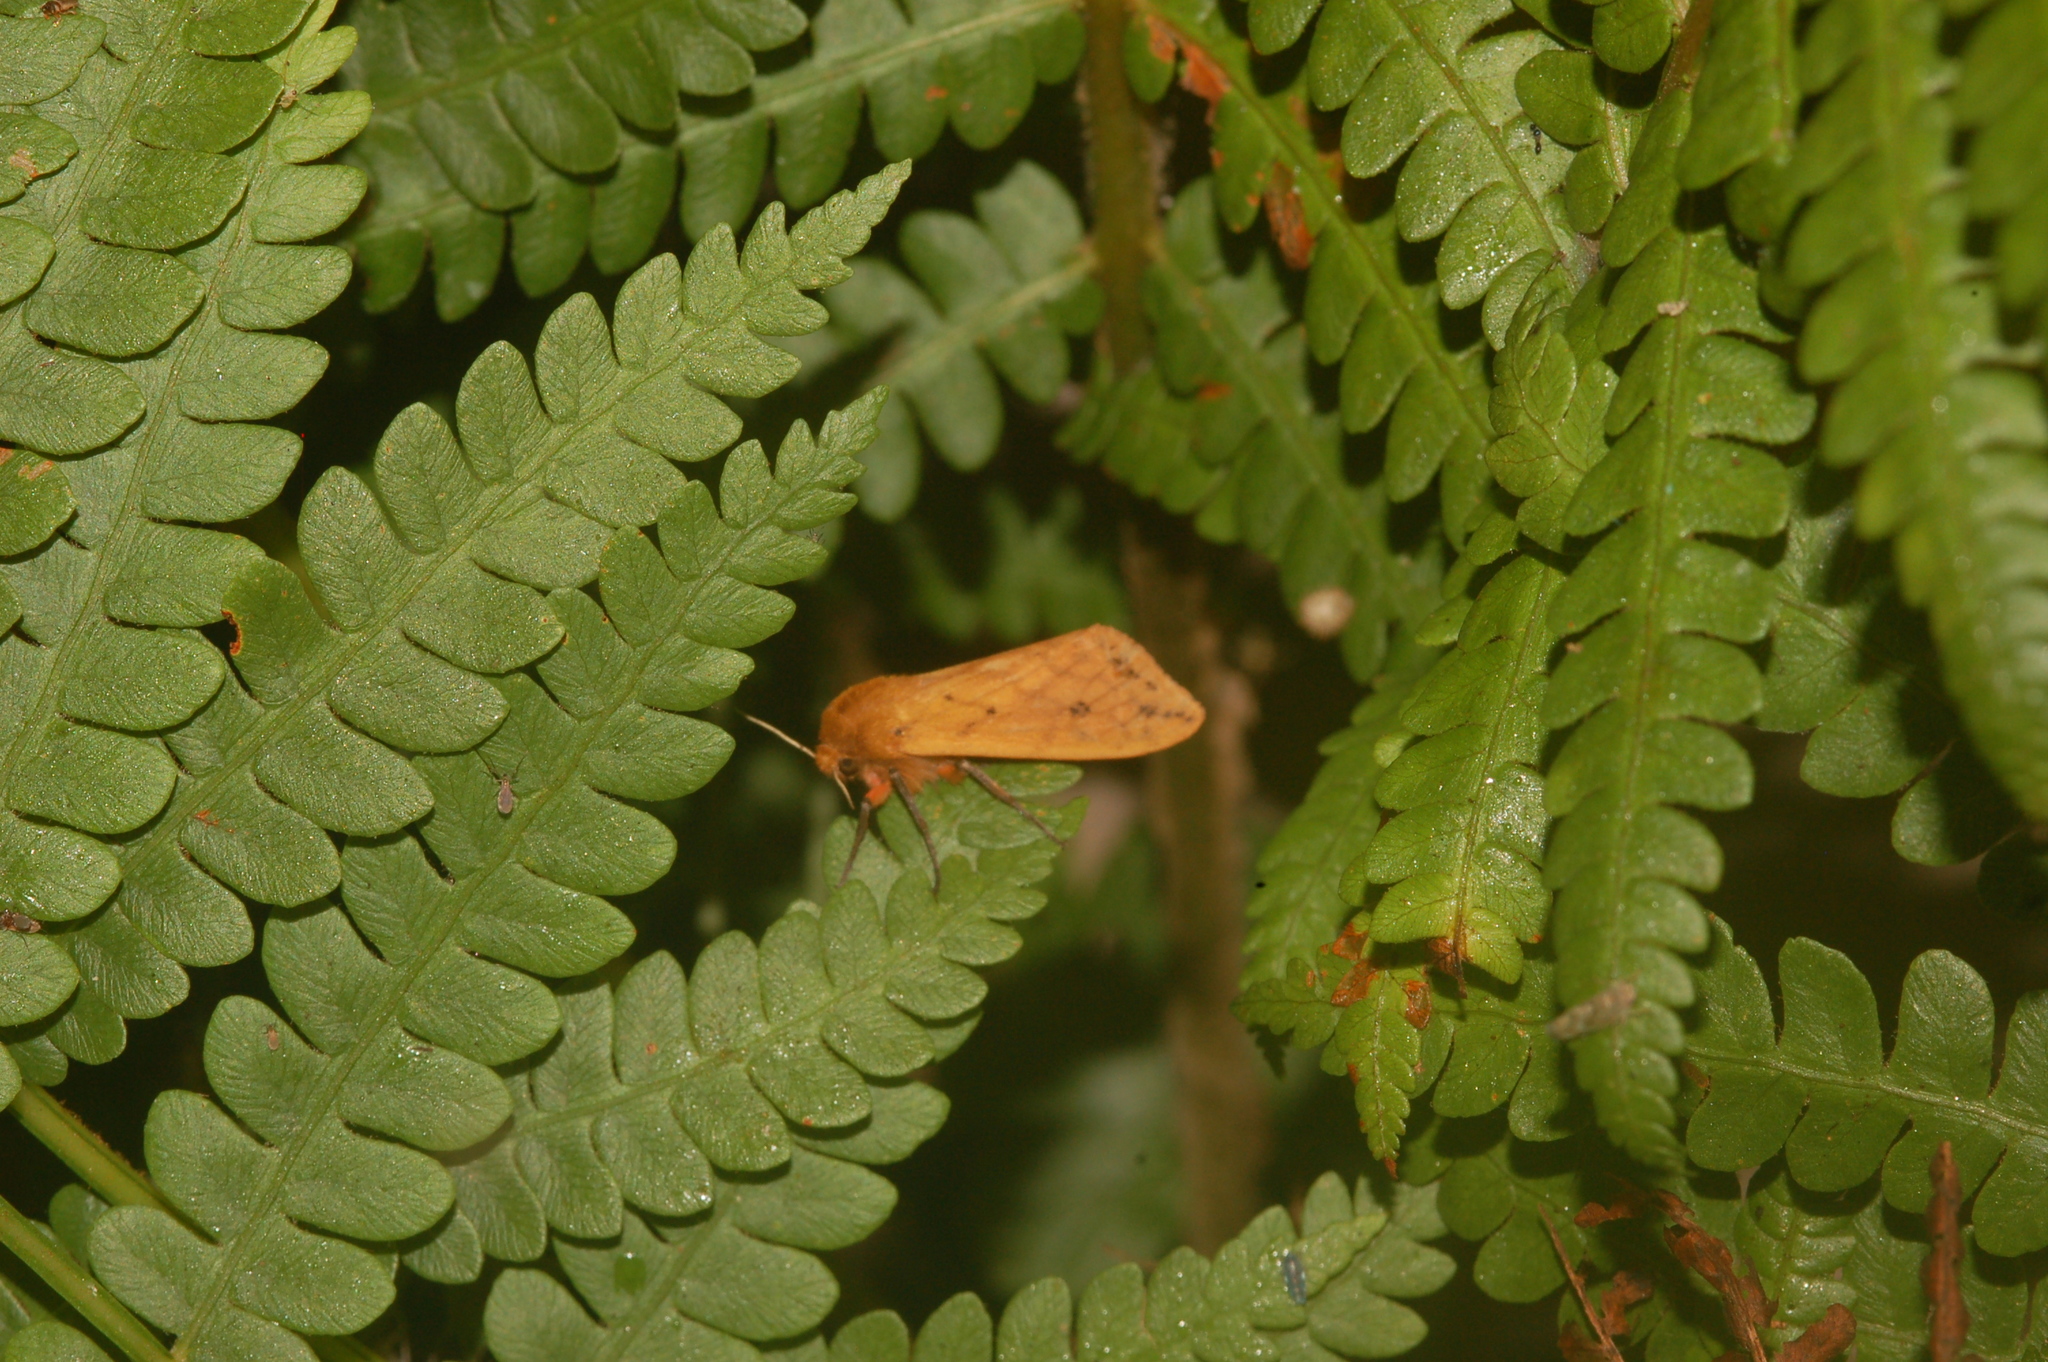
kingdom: Animalia
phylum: Arthropoda
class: Insecta
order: Lepidoptera
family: Erebidae
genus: Pyrrharctia
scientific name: Pyrrharctia isabella
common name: Isabella tiger moth
